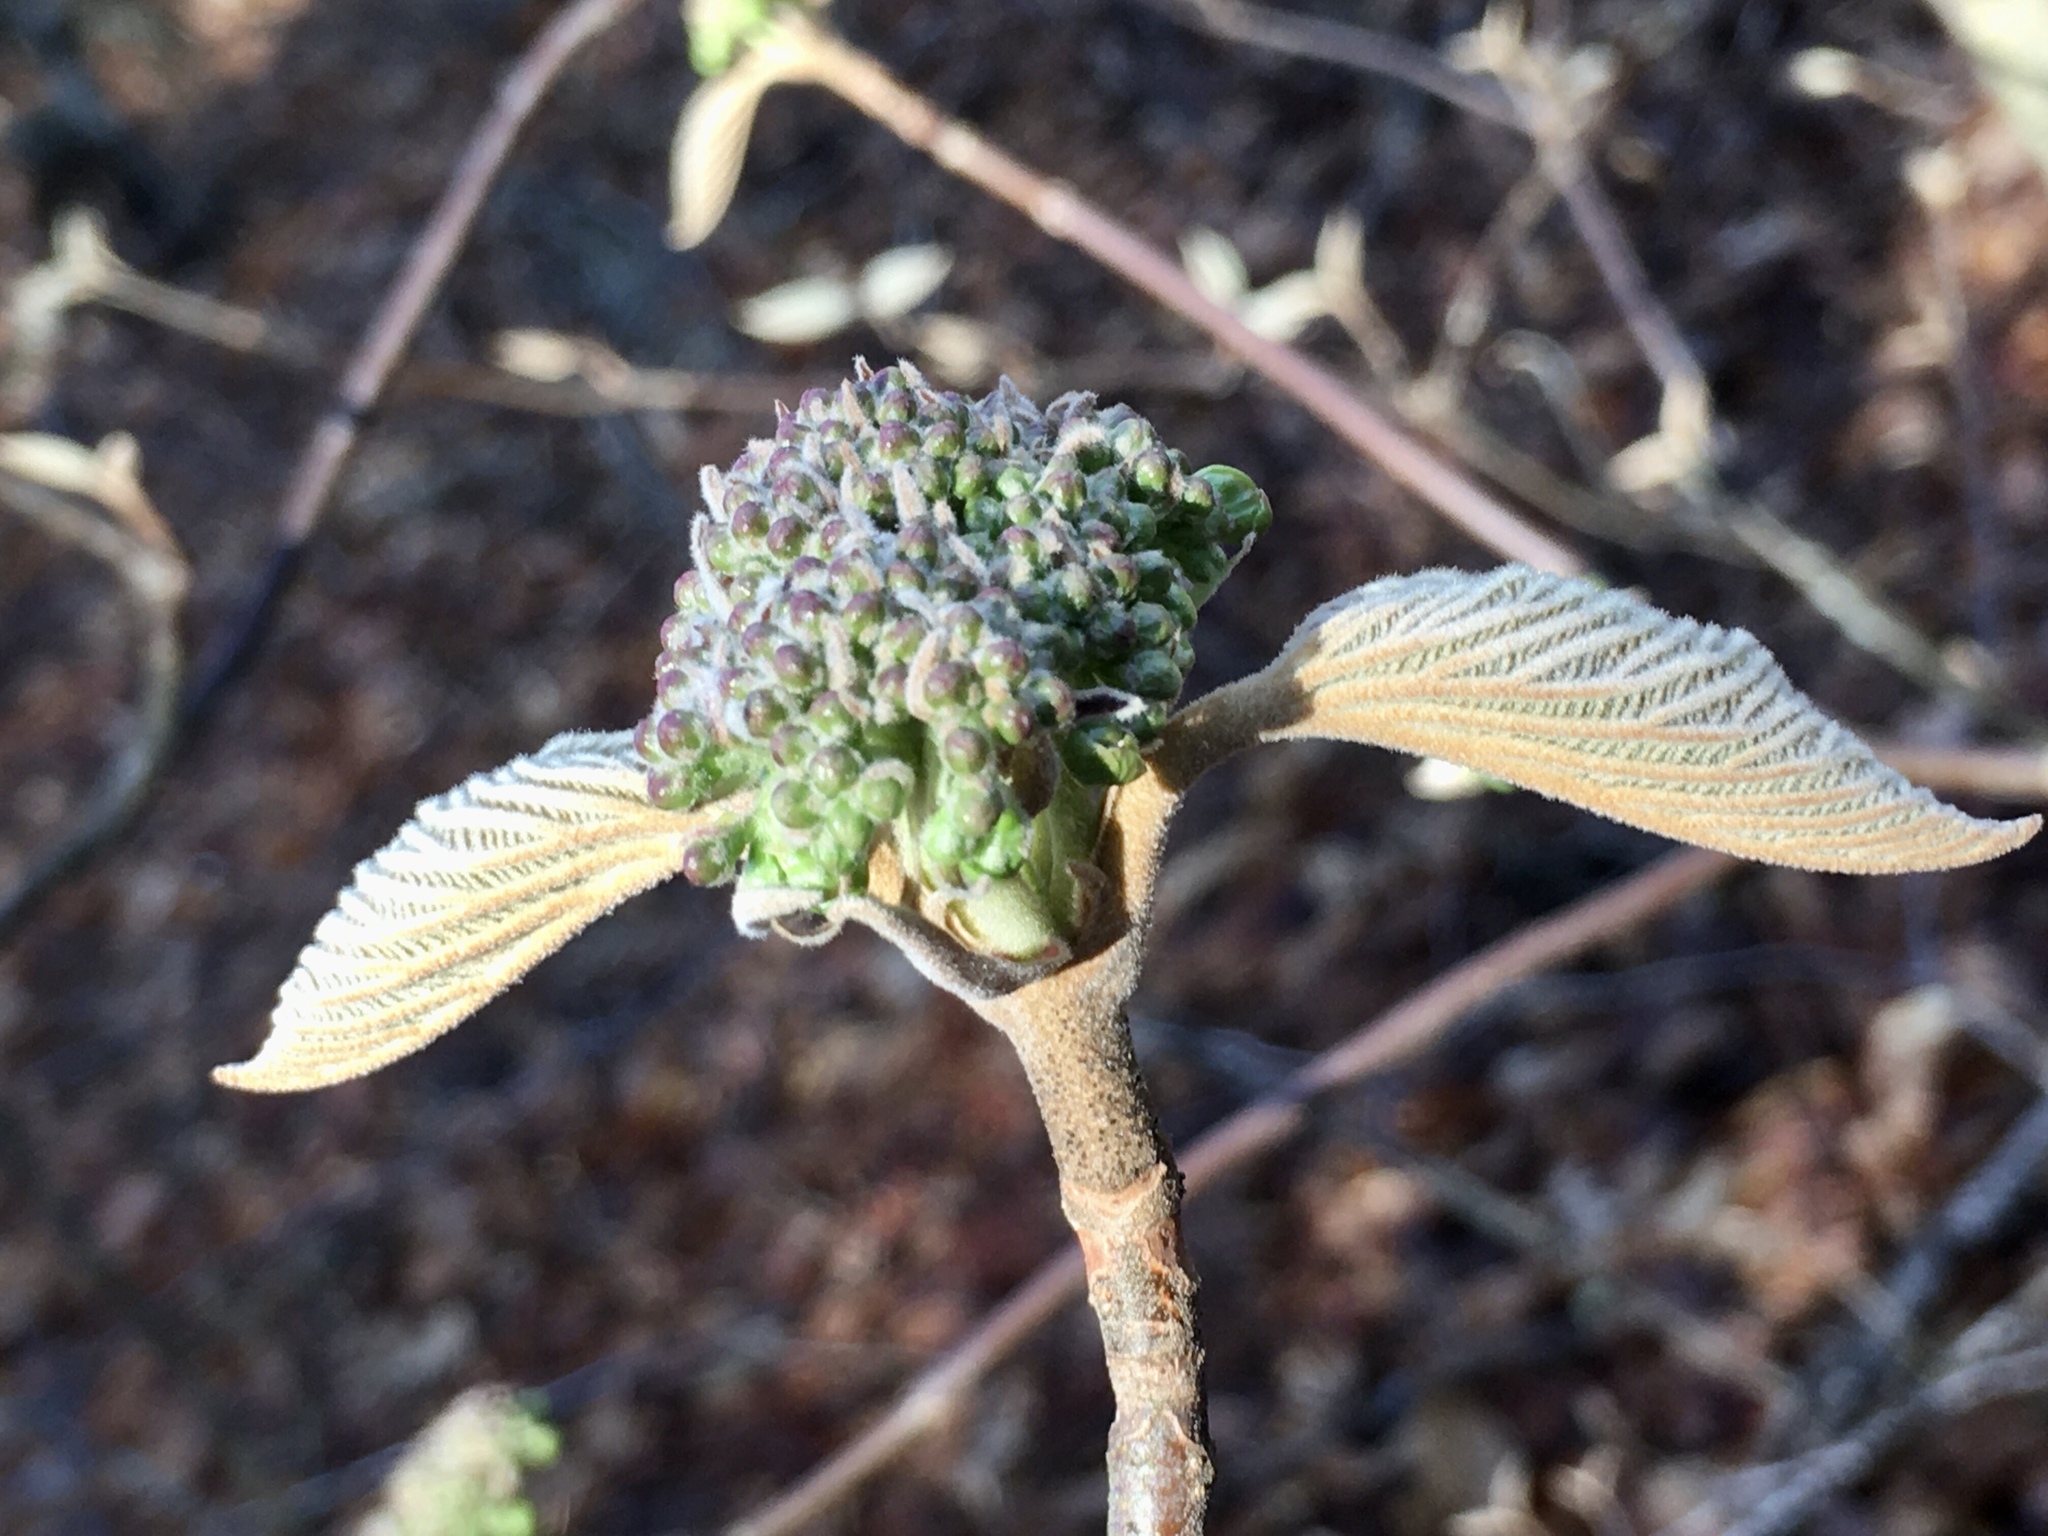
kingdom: Plantae
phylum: Tracheophyta
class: Magnoliopsida
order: Dipsacales
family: Viburnaceae
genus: Viburnum
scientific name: Viburnum lantanoides
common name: Hobblebush
